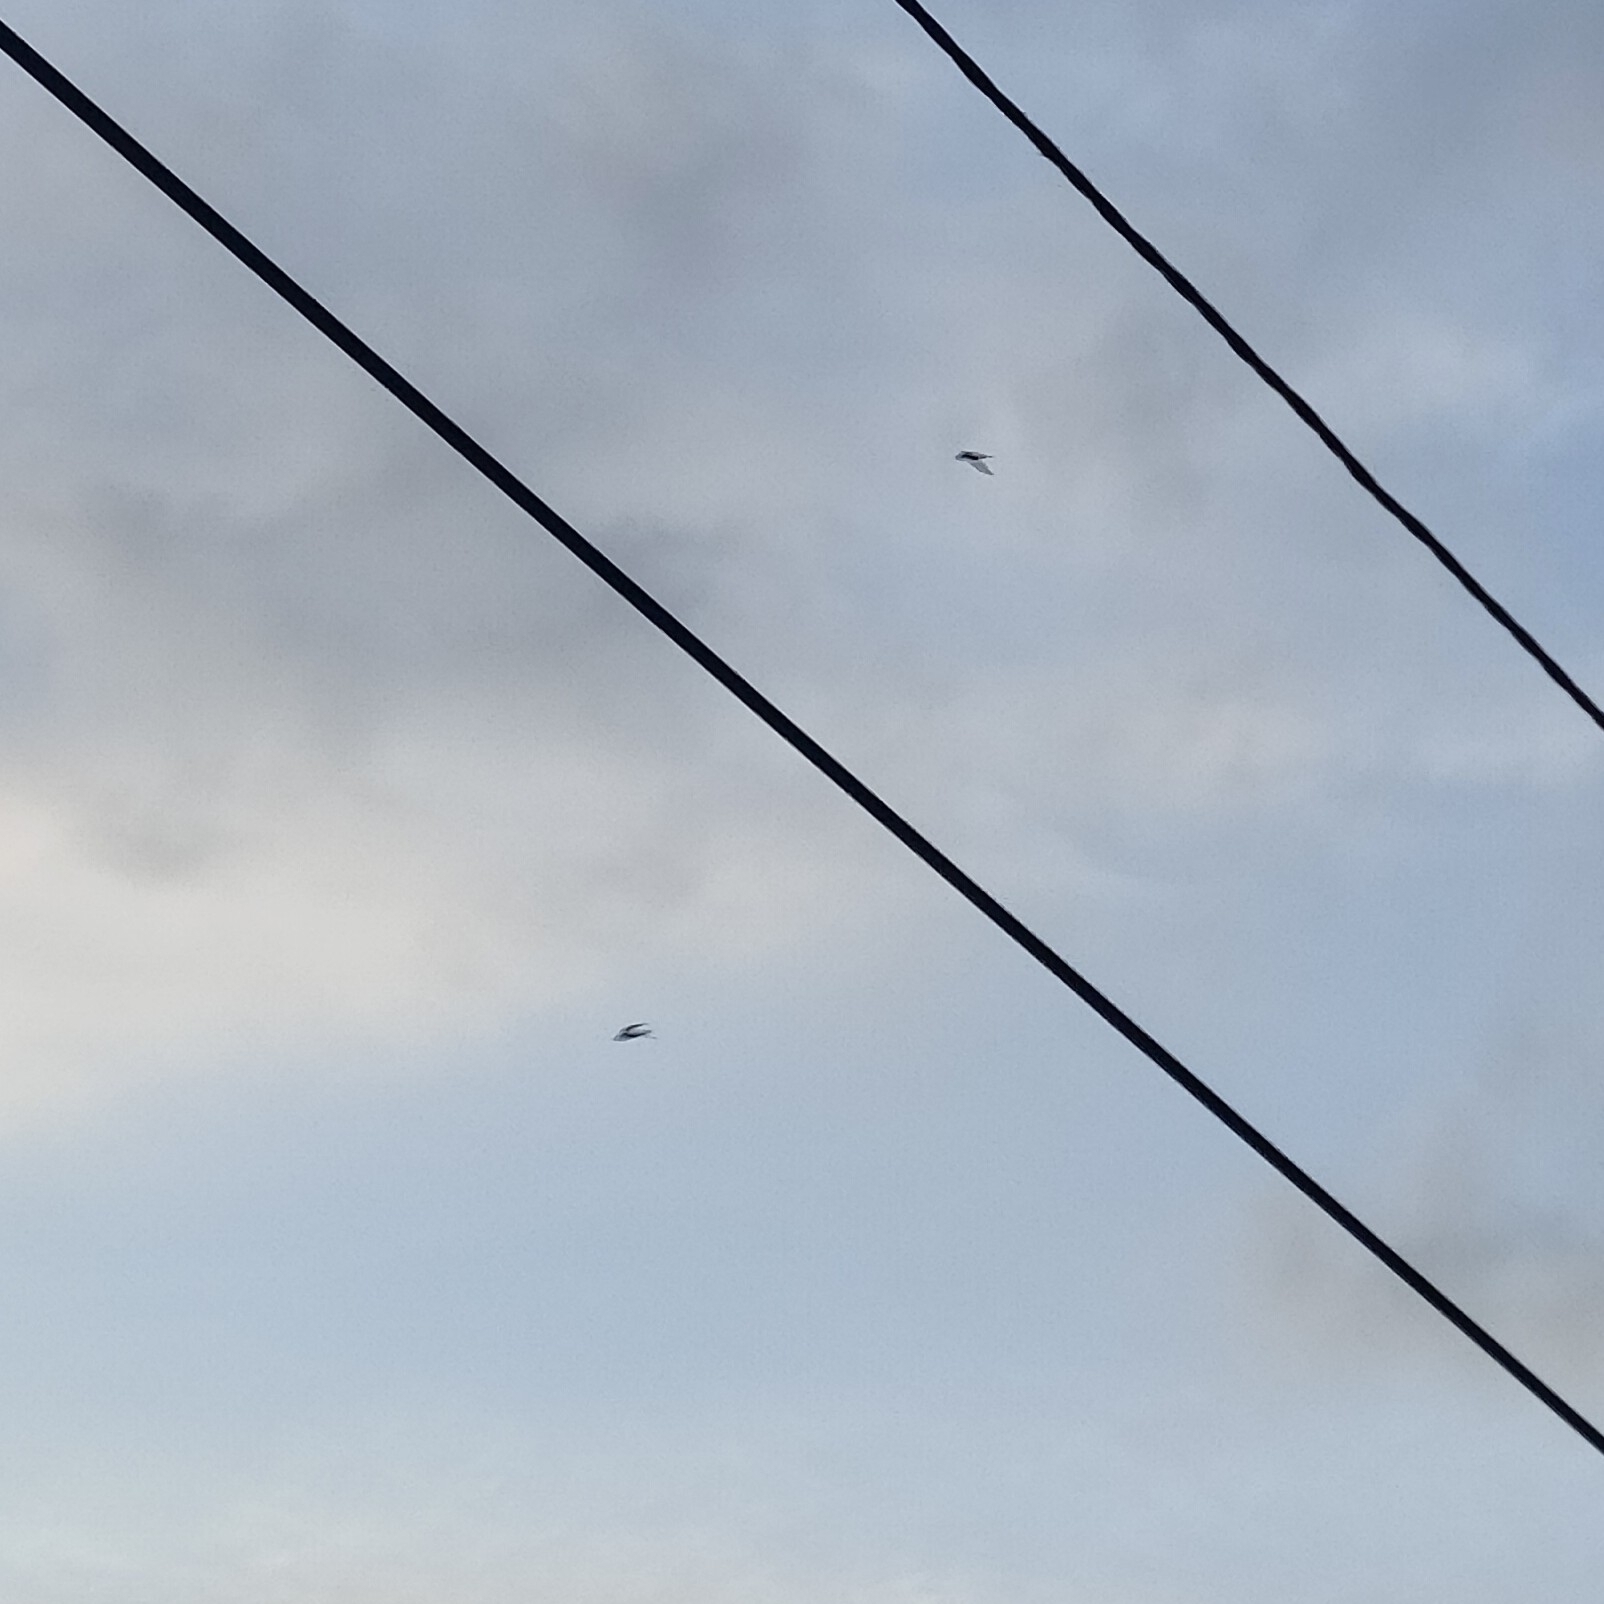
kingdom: Animalia
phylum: Chordata
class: Aves
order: Apodiformes
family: Apodidae
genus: Apus
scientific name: Apus apus
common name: Common swift
